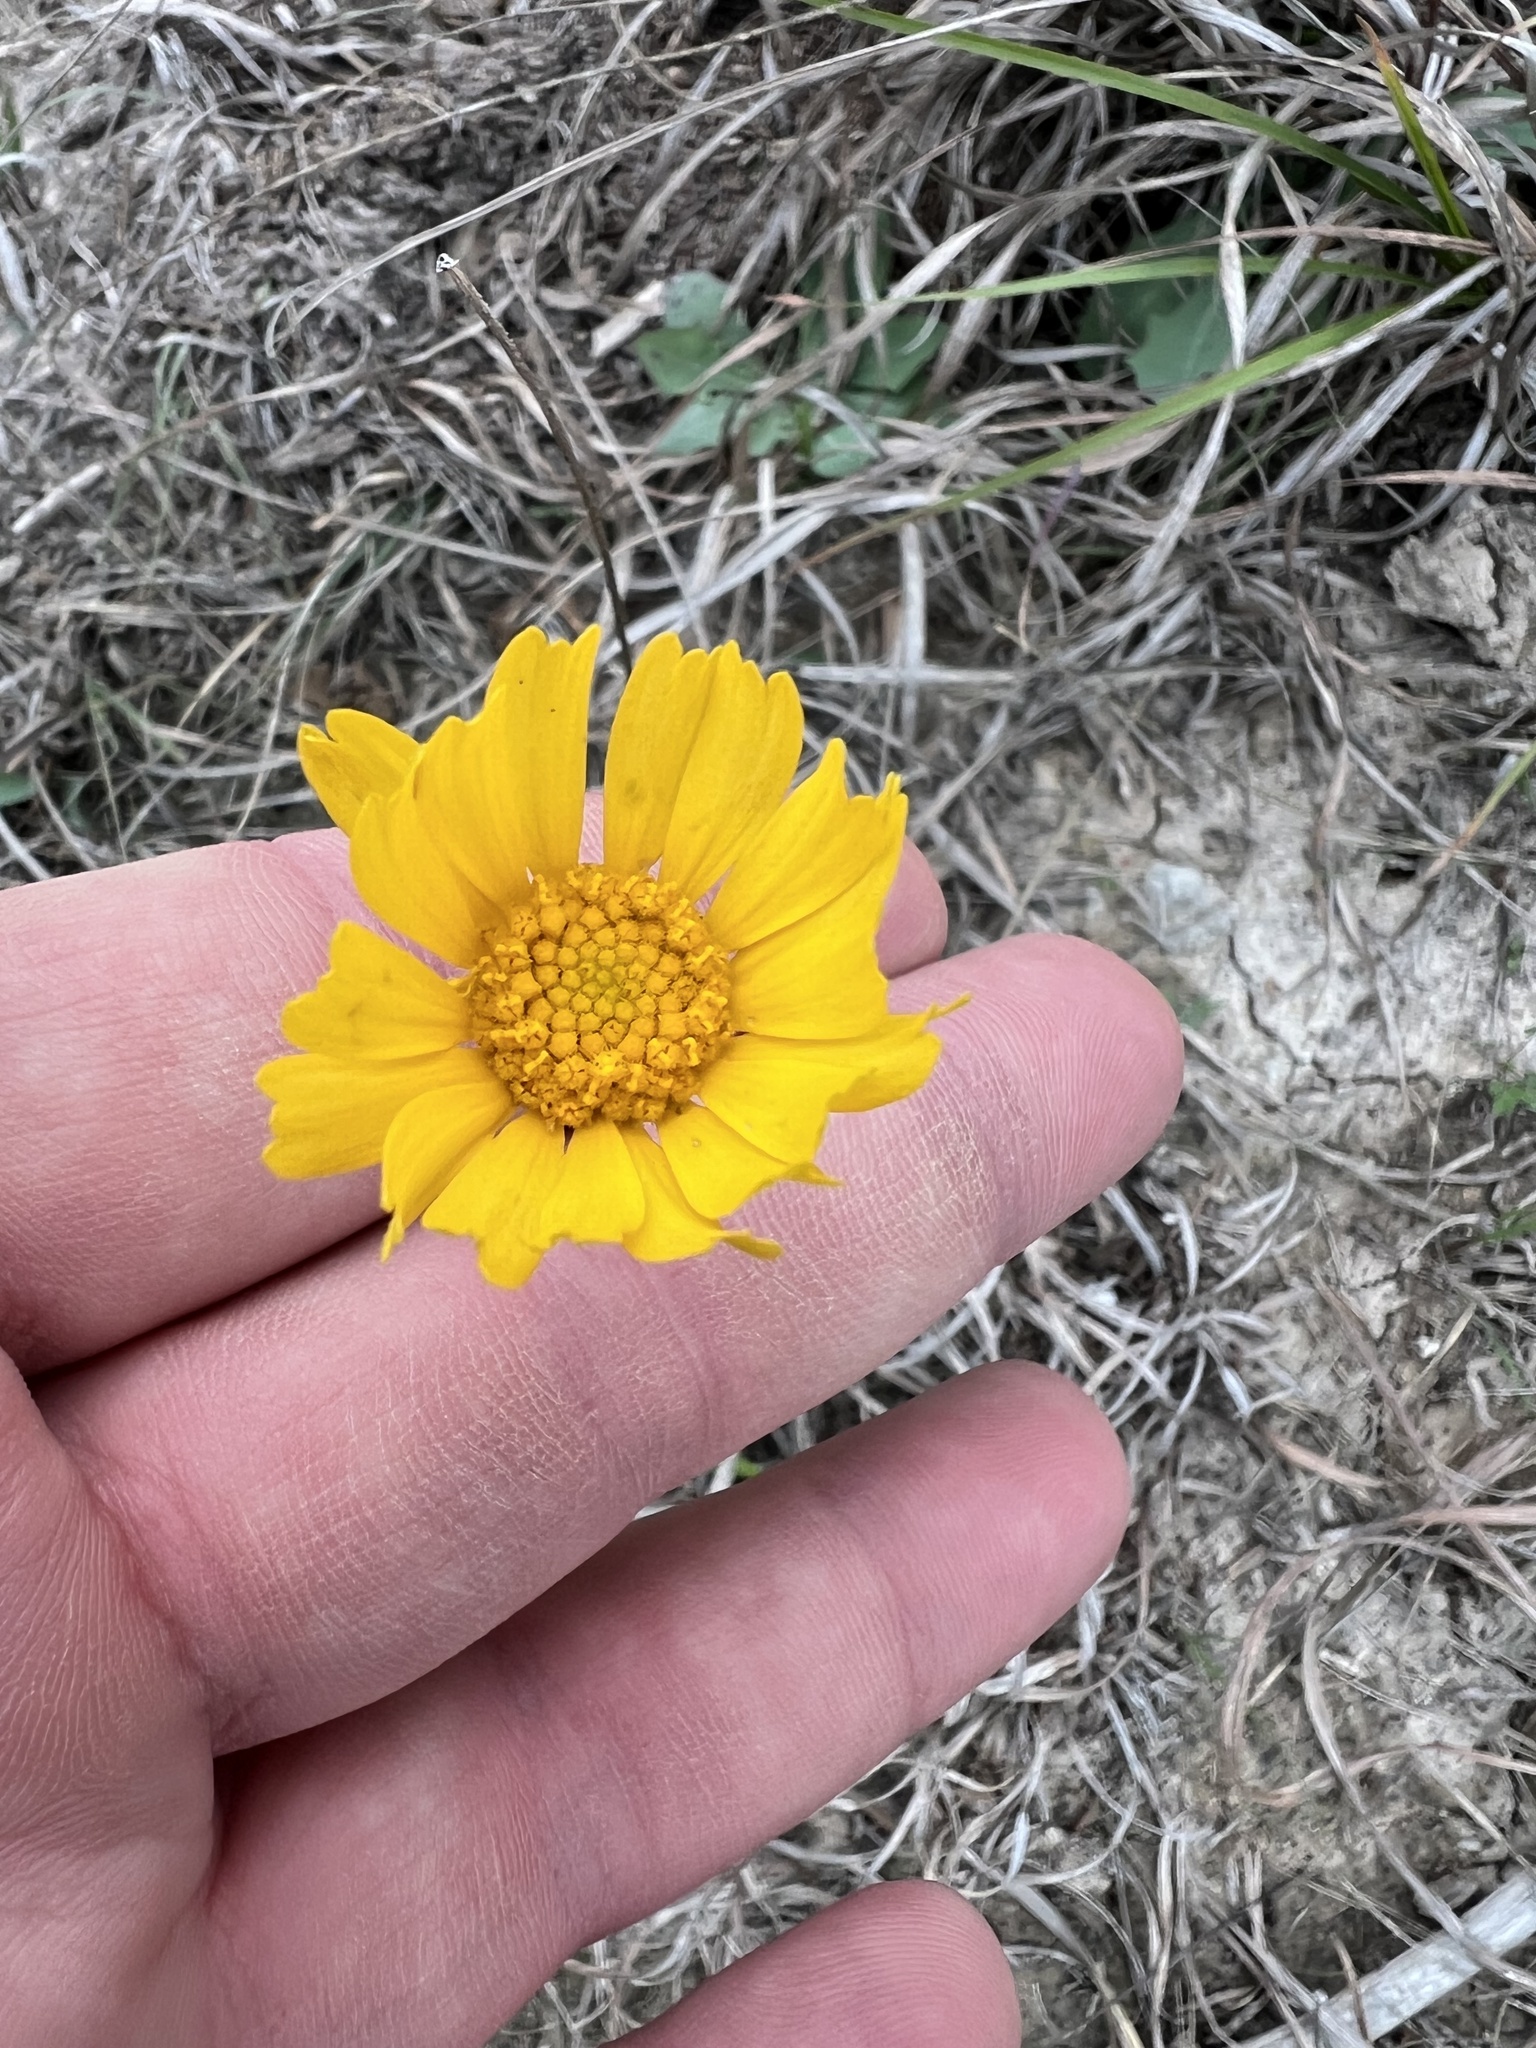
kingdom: Plantae
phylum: Tracheophyta
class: Magnoliopsida
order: Asterales
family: Asteraceae
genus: Tetraneuris
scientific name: Tetraneuris scaposa
